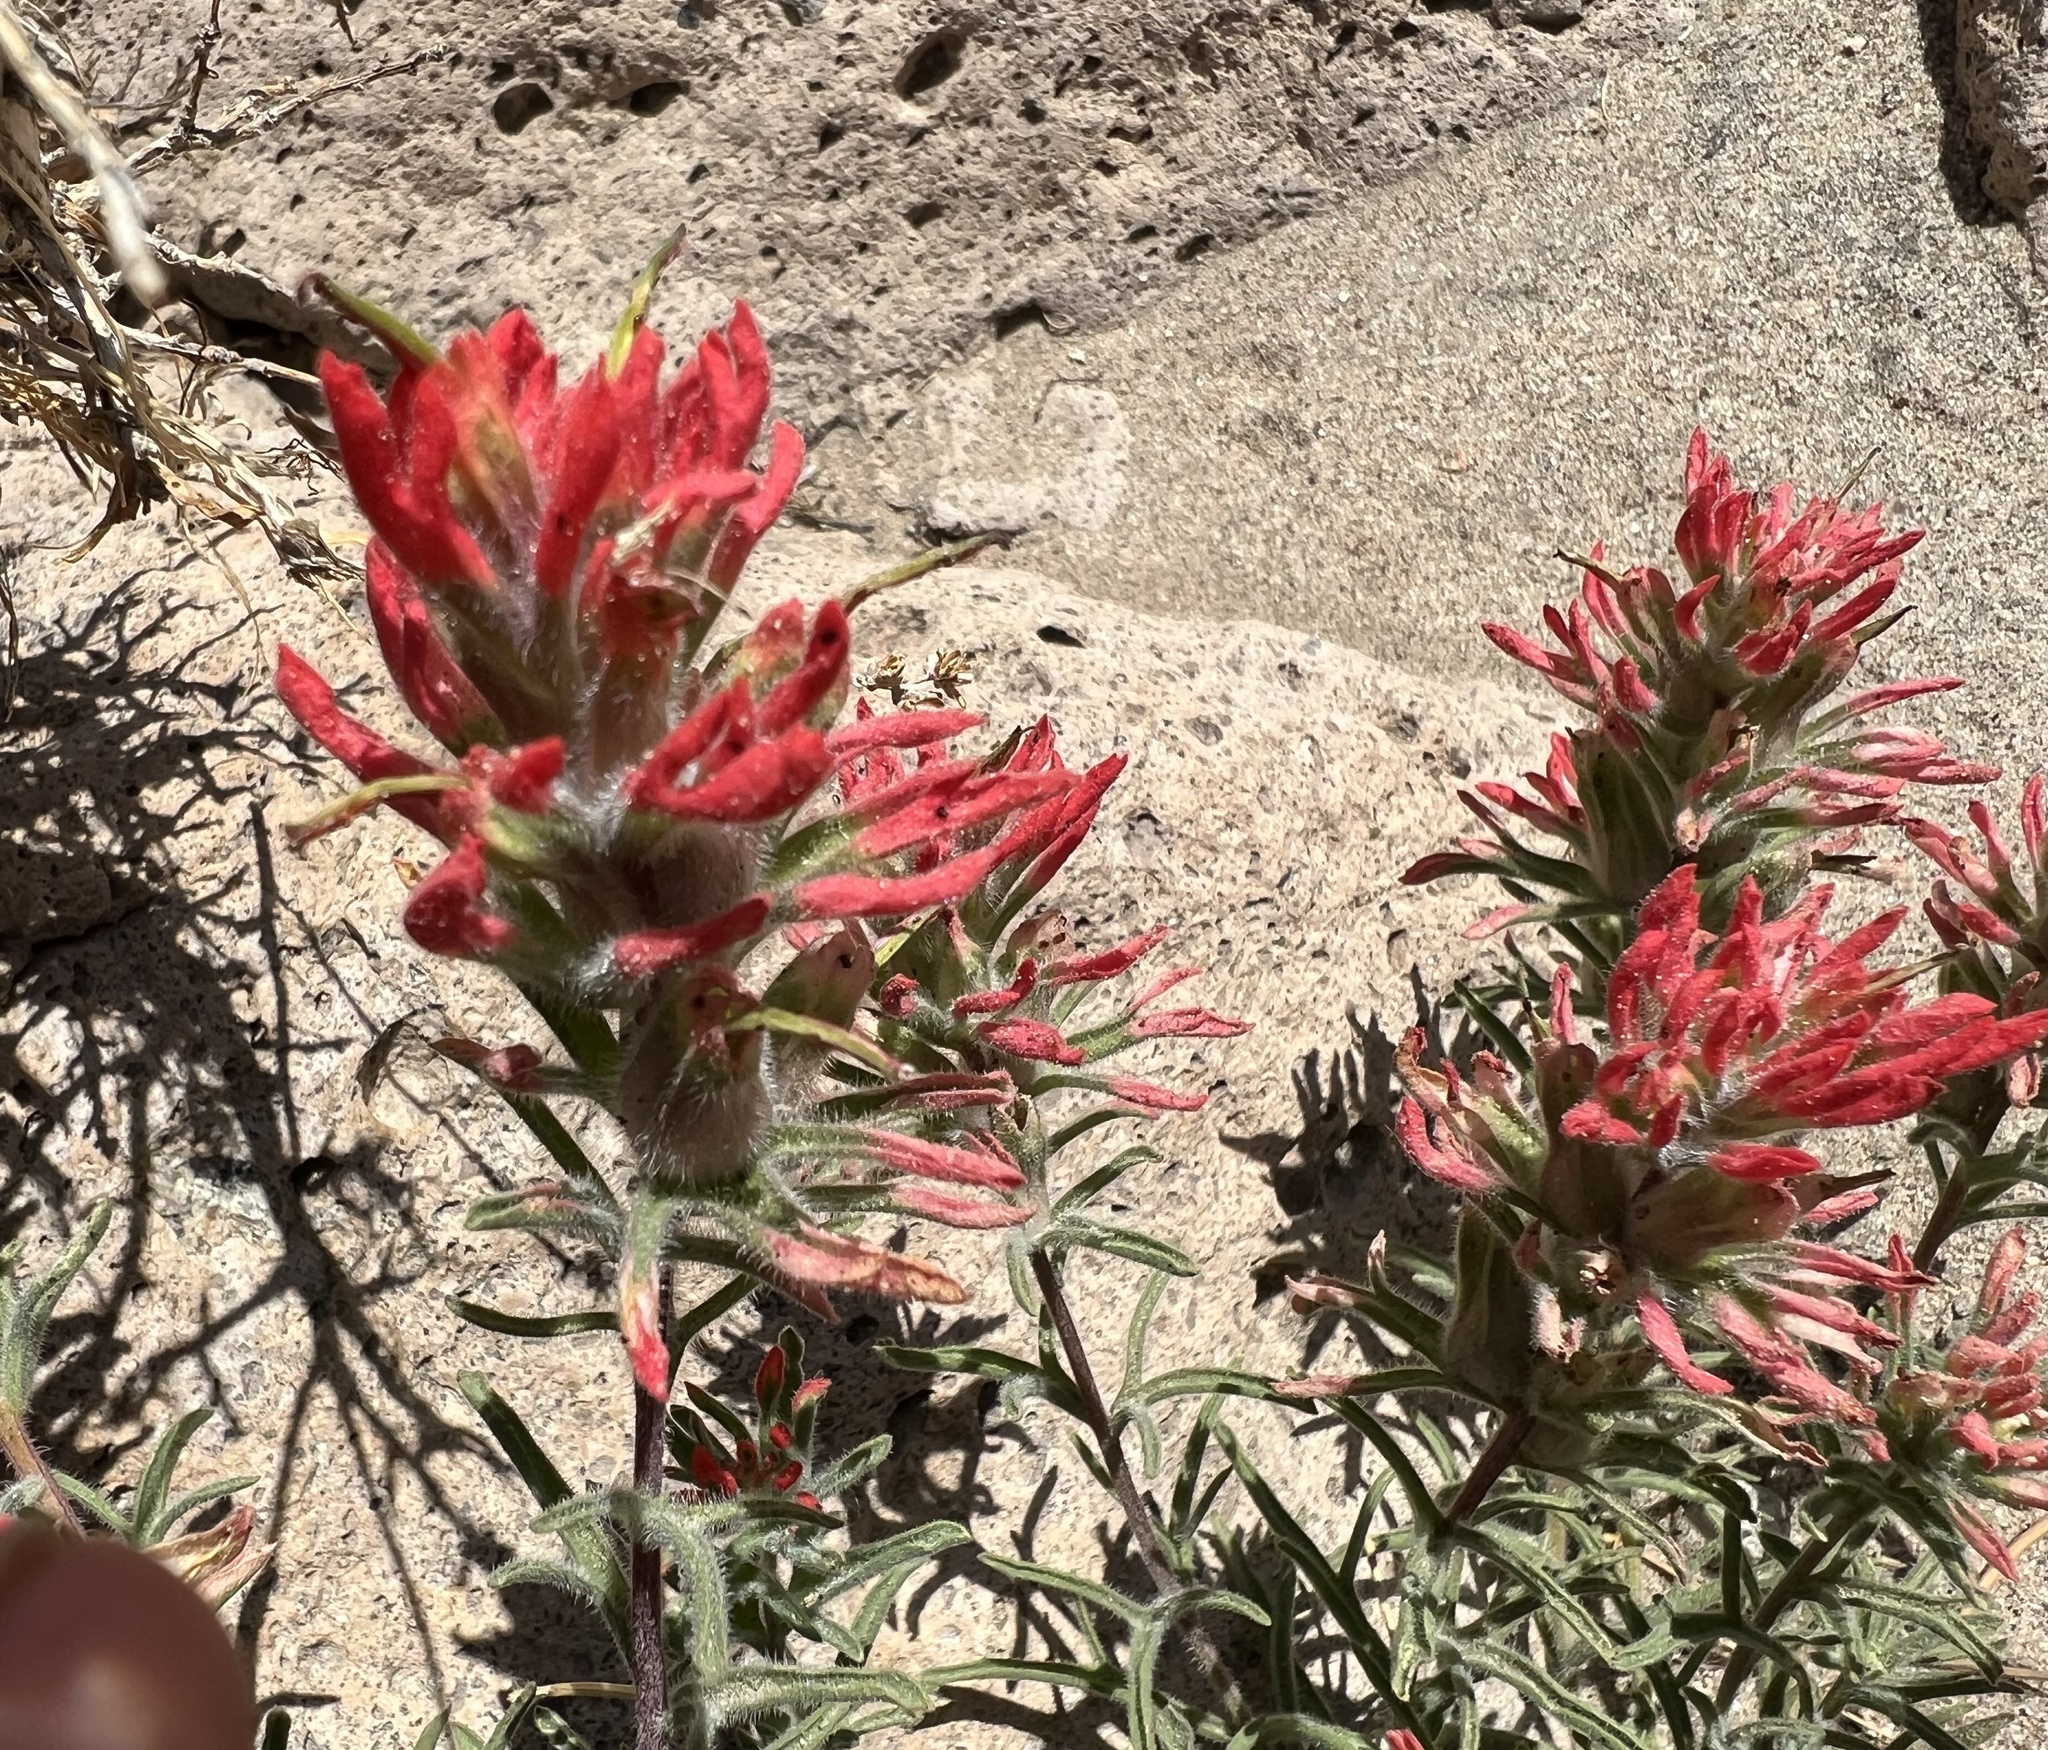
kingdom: Plantae
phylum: Tracheophyta
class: Magnoliopsida
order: Lamiales
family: Orobanchaceae
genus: Castilleja
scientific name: Castilleja chromosa
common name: Desert paintbrush
